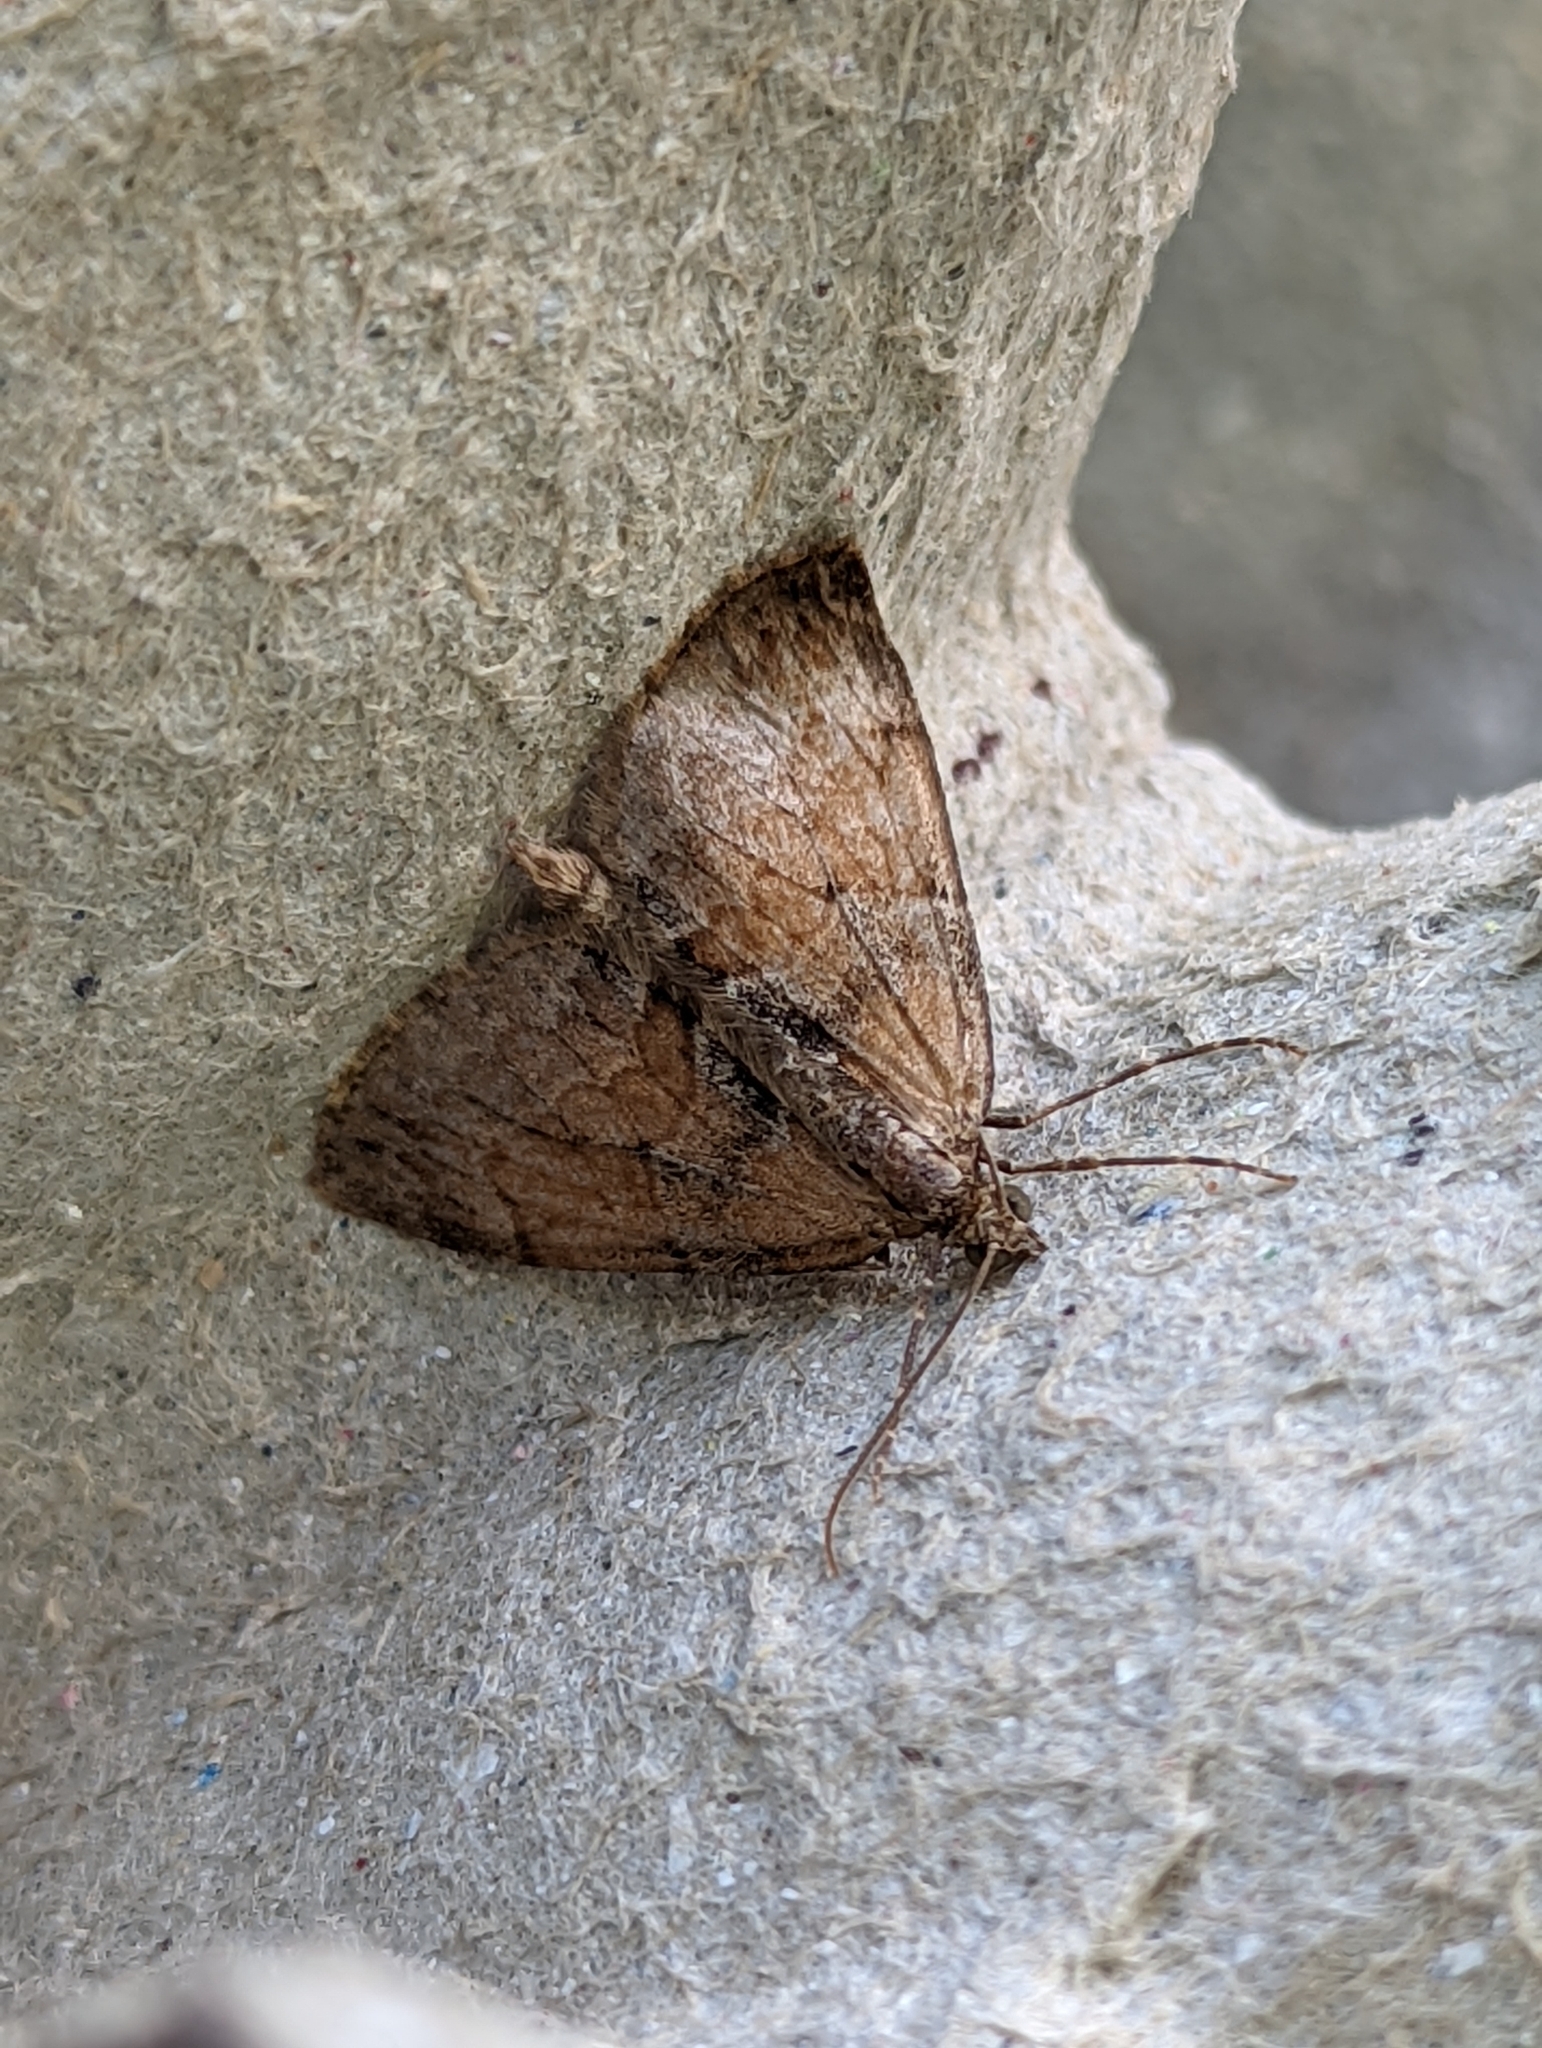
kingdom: Animalia
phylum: Arthropoda
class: Insecta
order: Lepidoptera
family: Geometridae
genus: Thera
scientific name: Thera obeliscata
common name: Grey pine carpet
